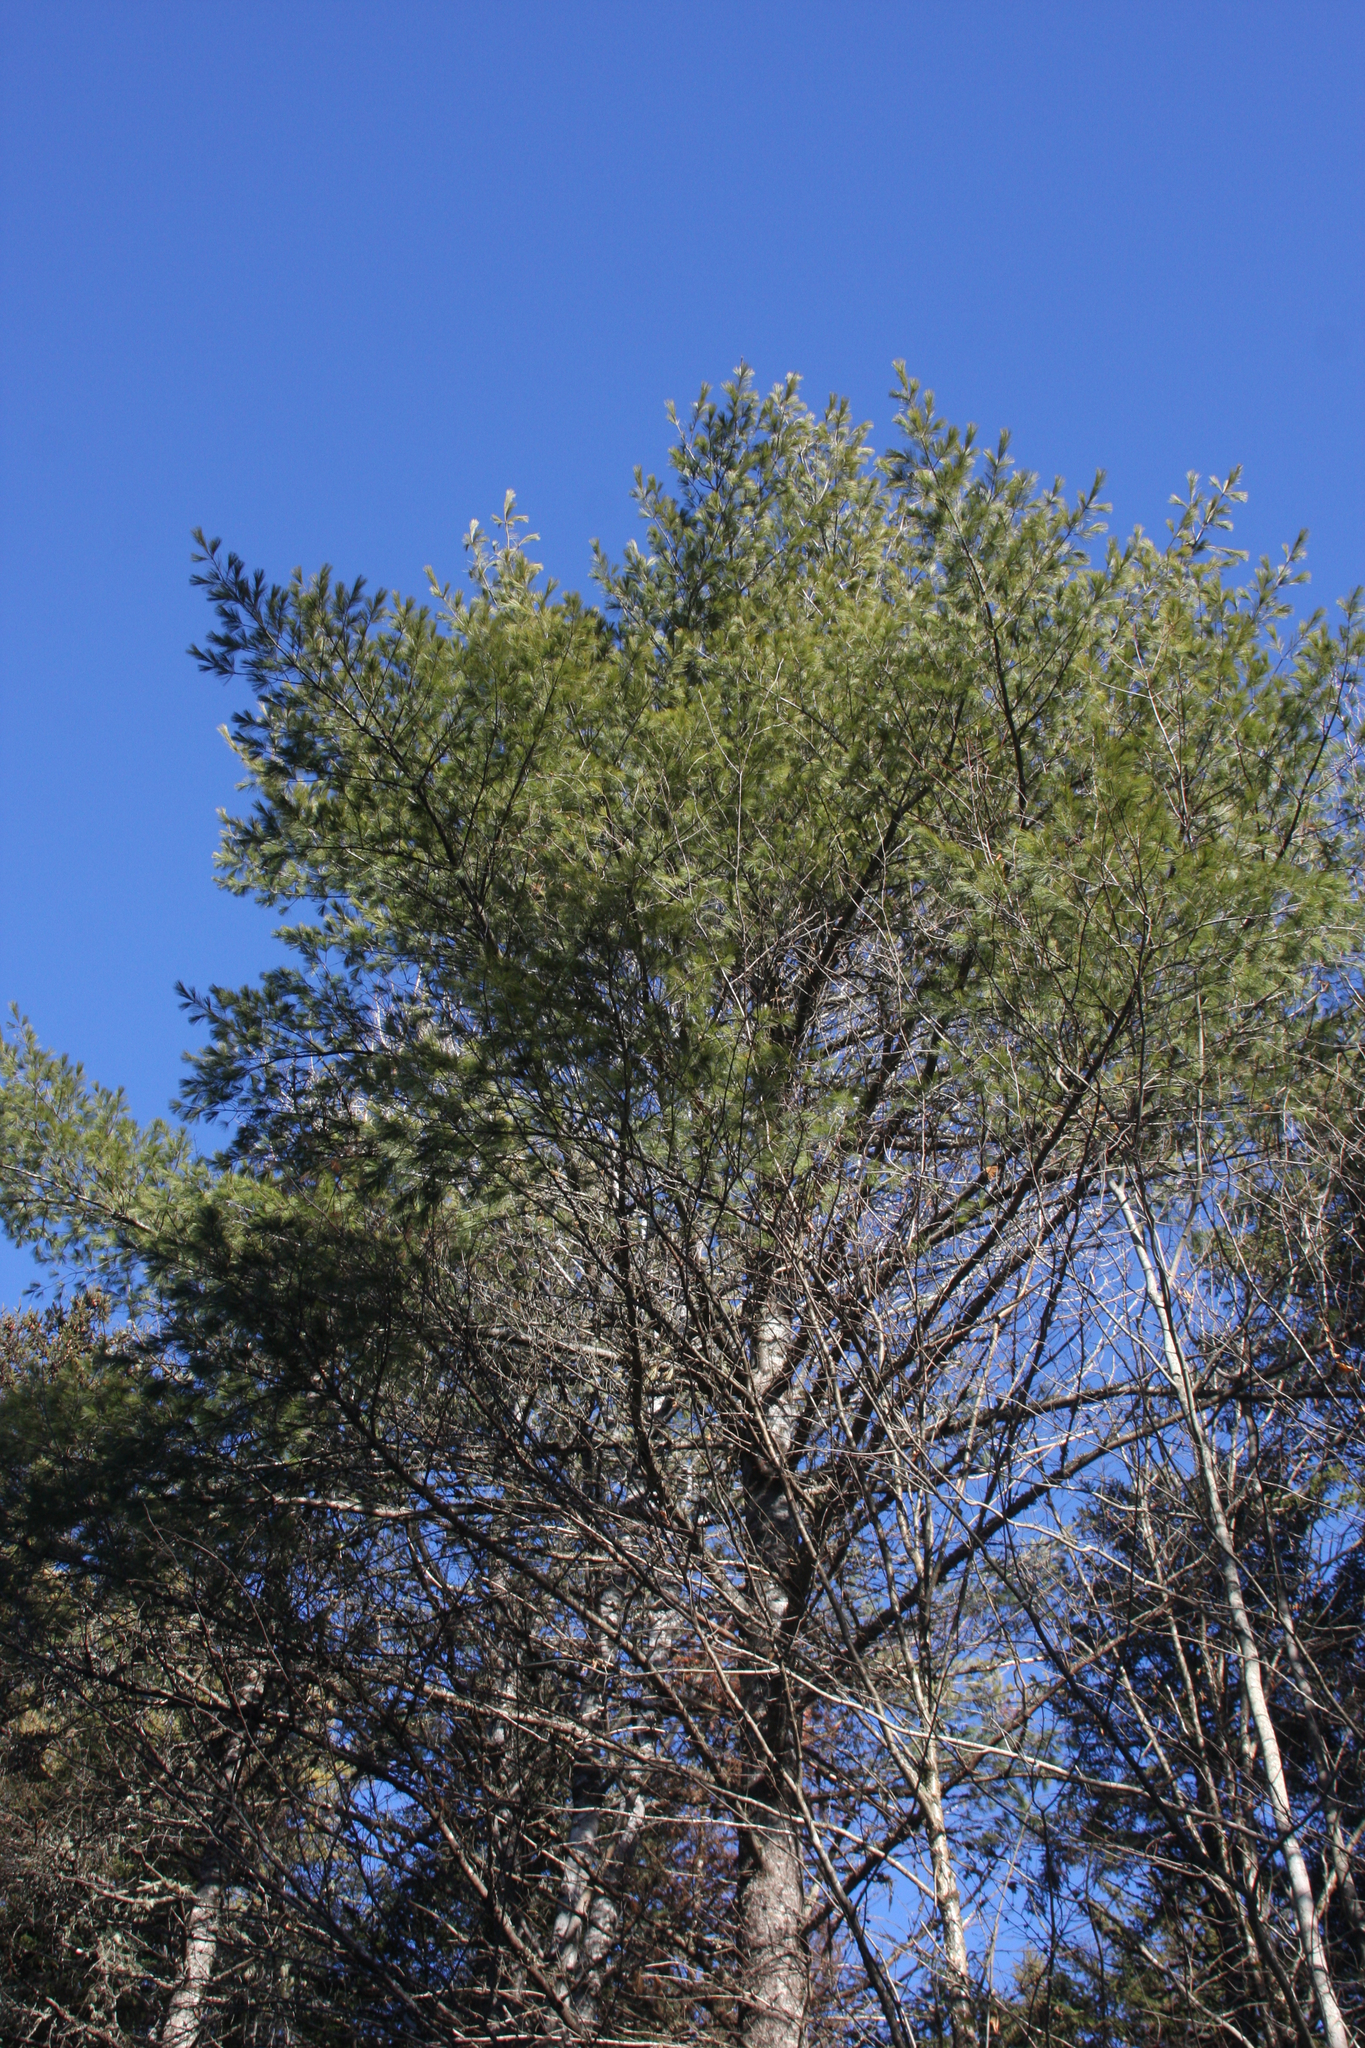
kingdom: Plantae
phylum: Tracheophyta
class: Pinopsida
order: Pinales
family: Pinaceae
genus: Pinus
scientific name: Pinus strobus
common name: Weymouth pine
